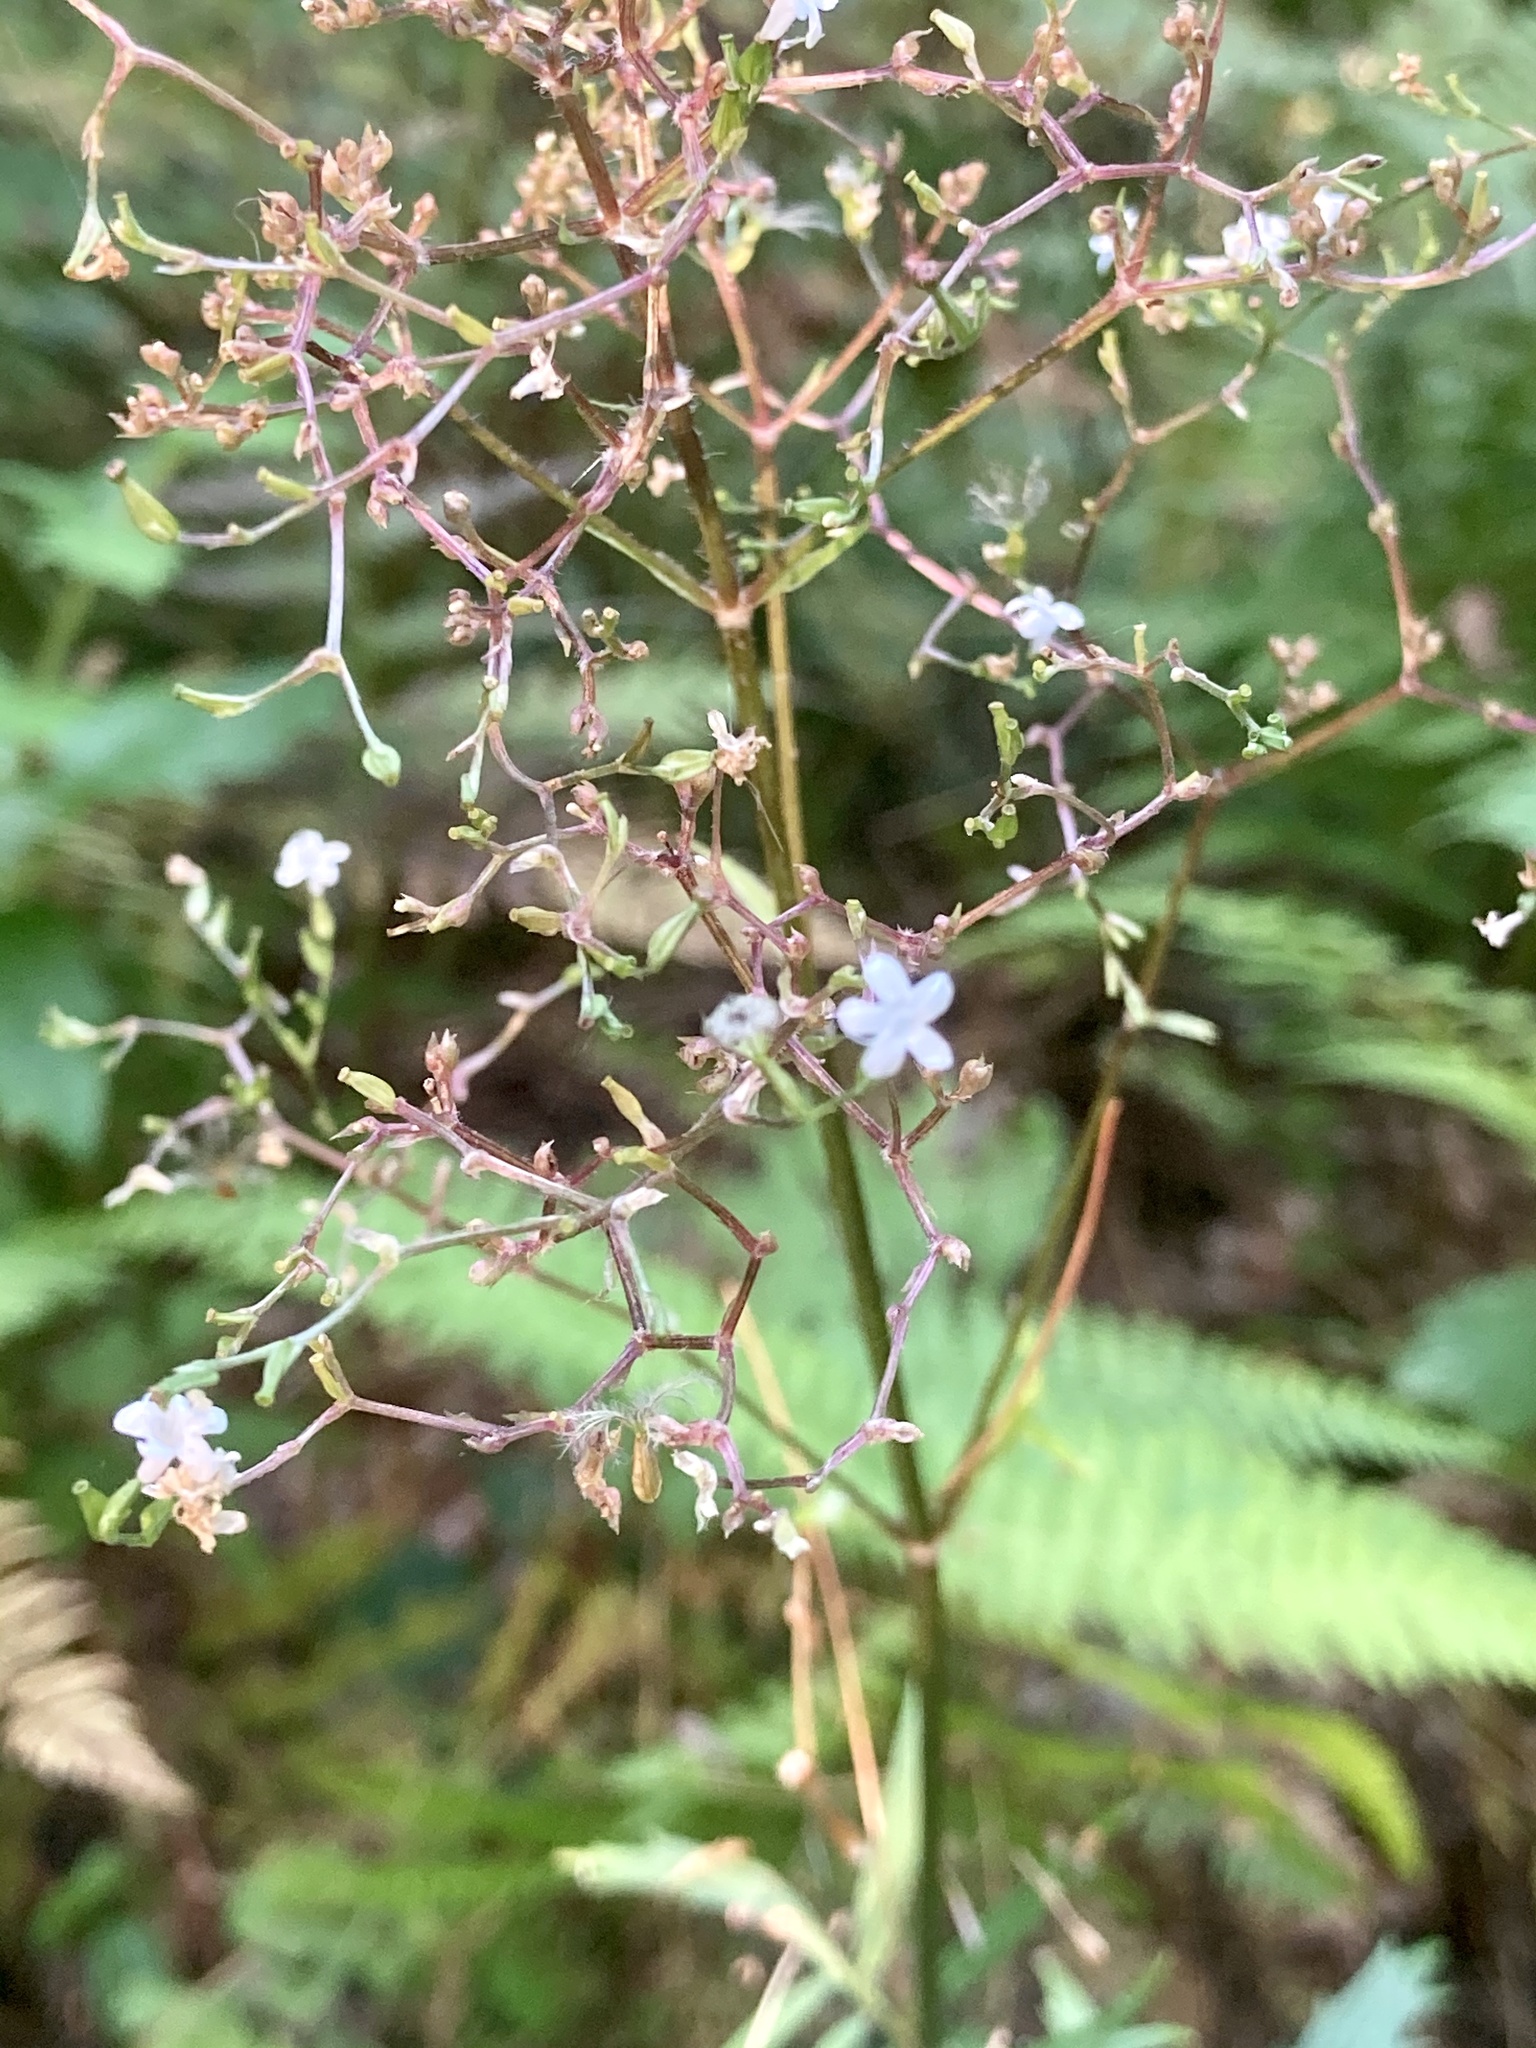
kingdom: Plantae
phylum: Tracheophyta
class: Magnoliopsida
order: Dipsacales
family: Caprifoliaceae
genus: Valeriana
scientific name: Valeriana officinalis
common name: Common valerian
